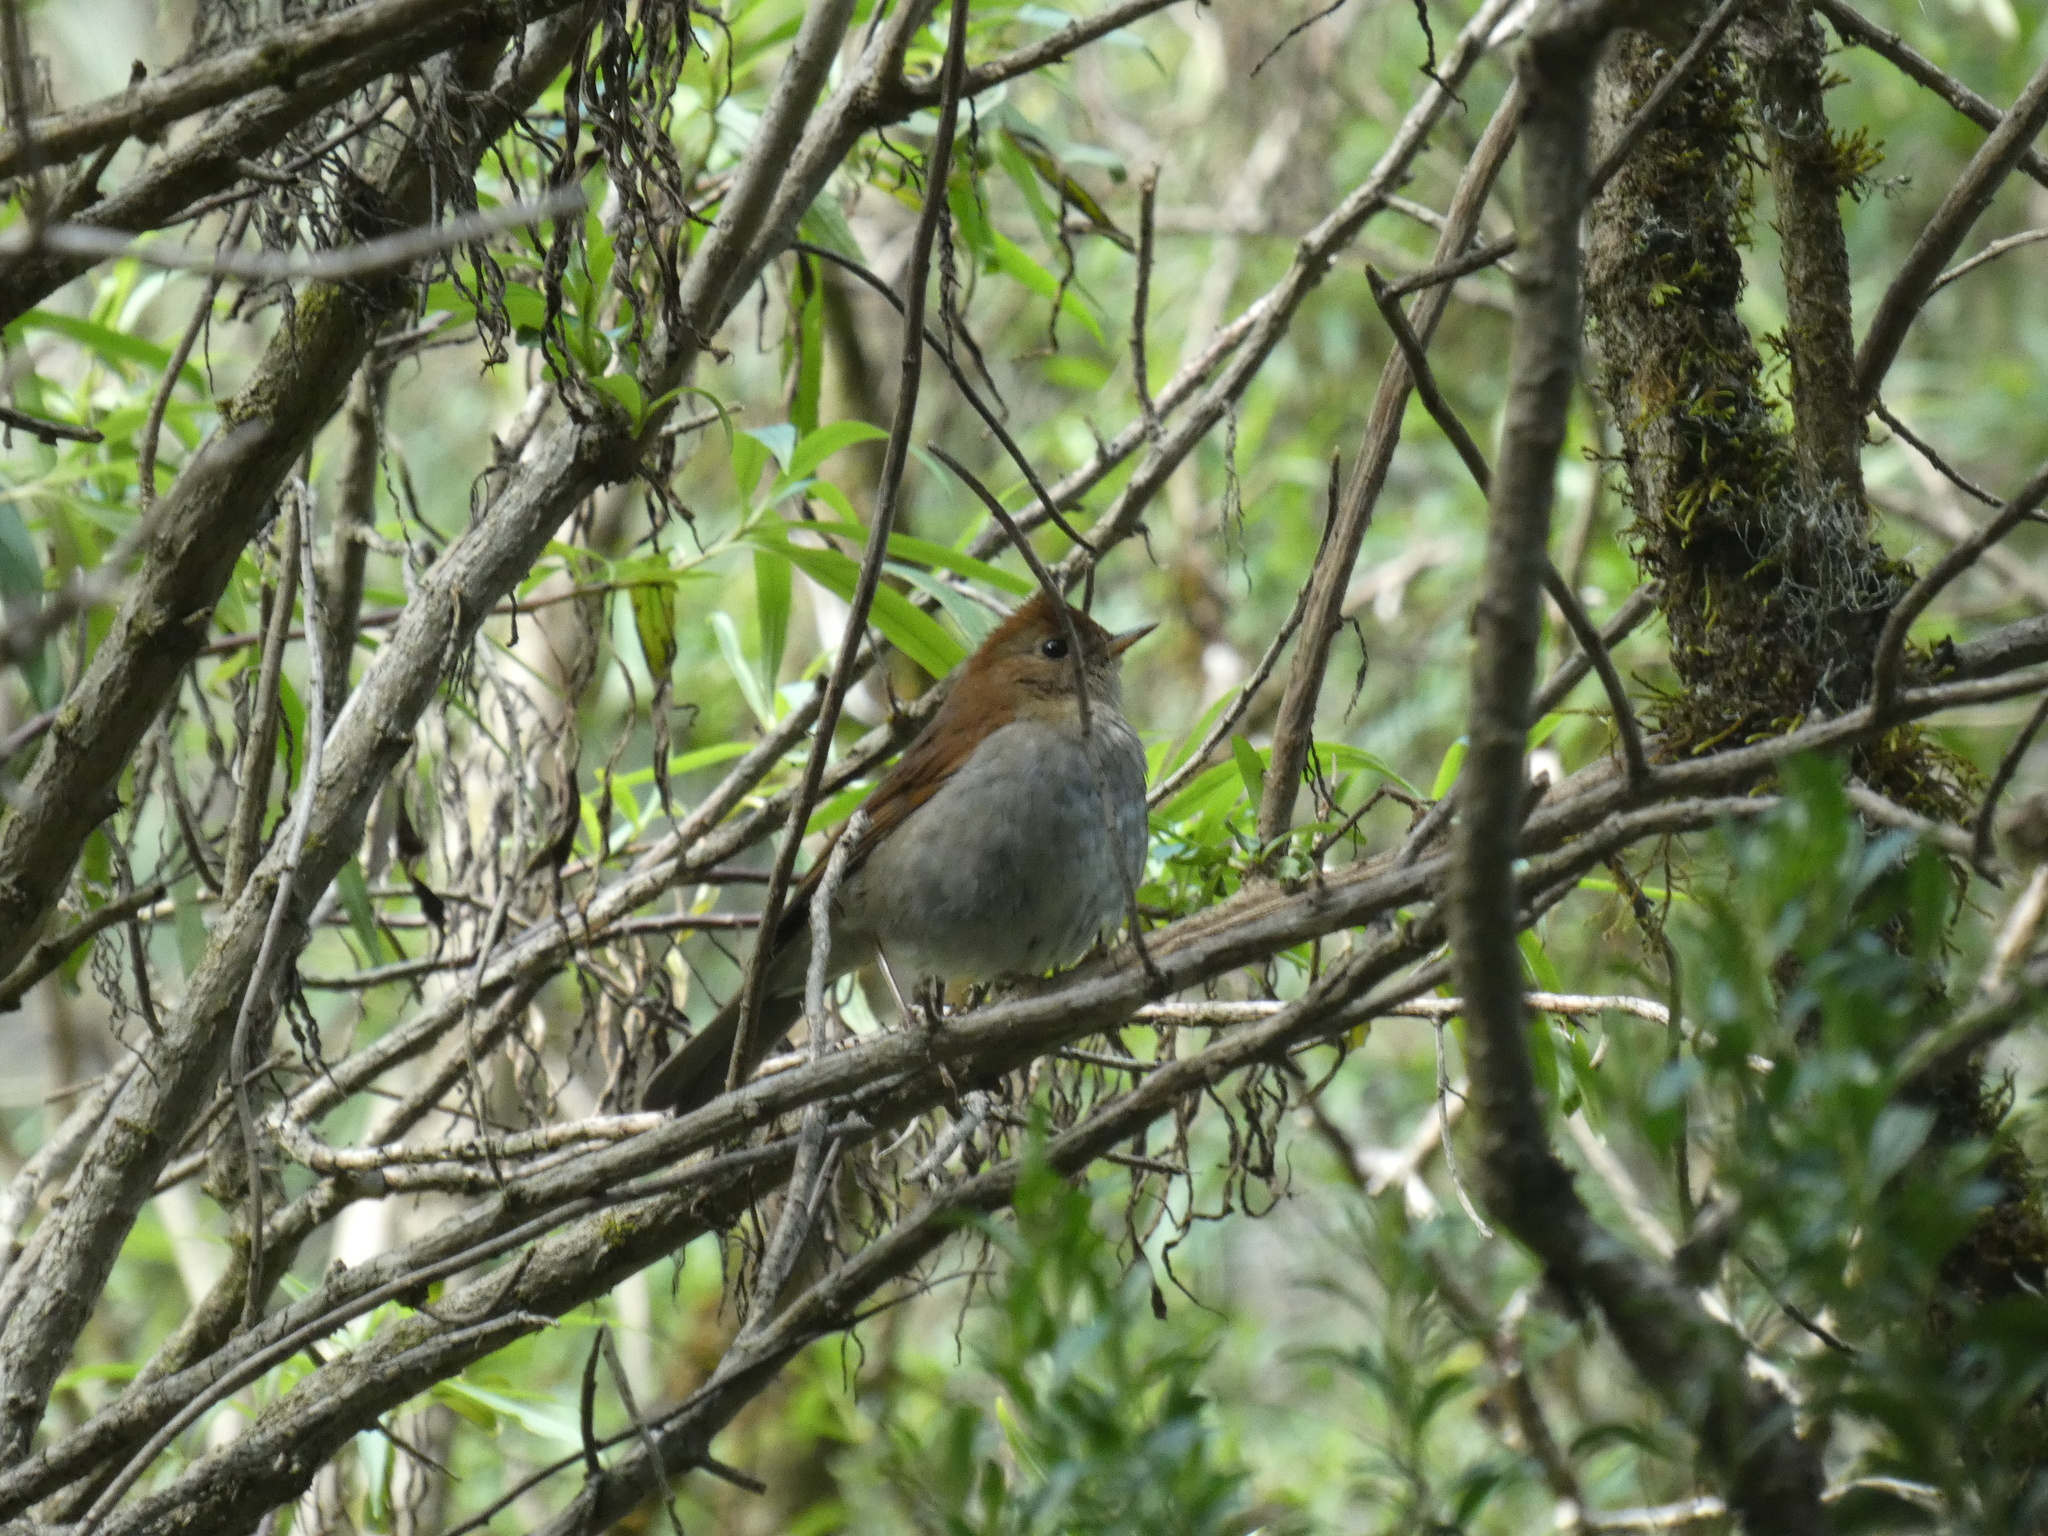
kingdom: Animalia
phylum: Chordata
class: Aves
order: Passeriformes
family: Turdidae
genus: Catharus
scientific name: Catharus occidentalis
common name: Russet nightingale-thrush
